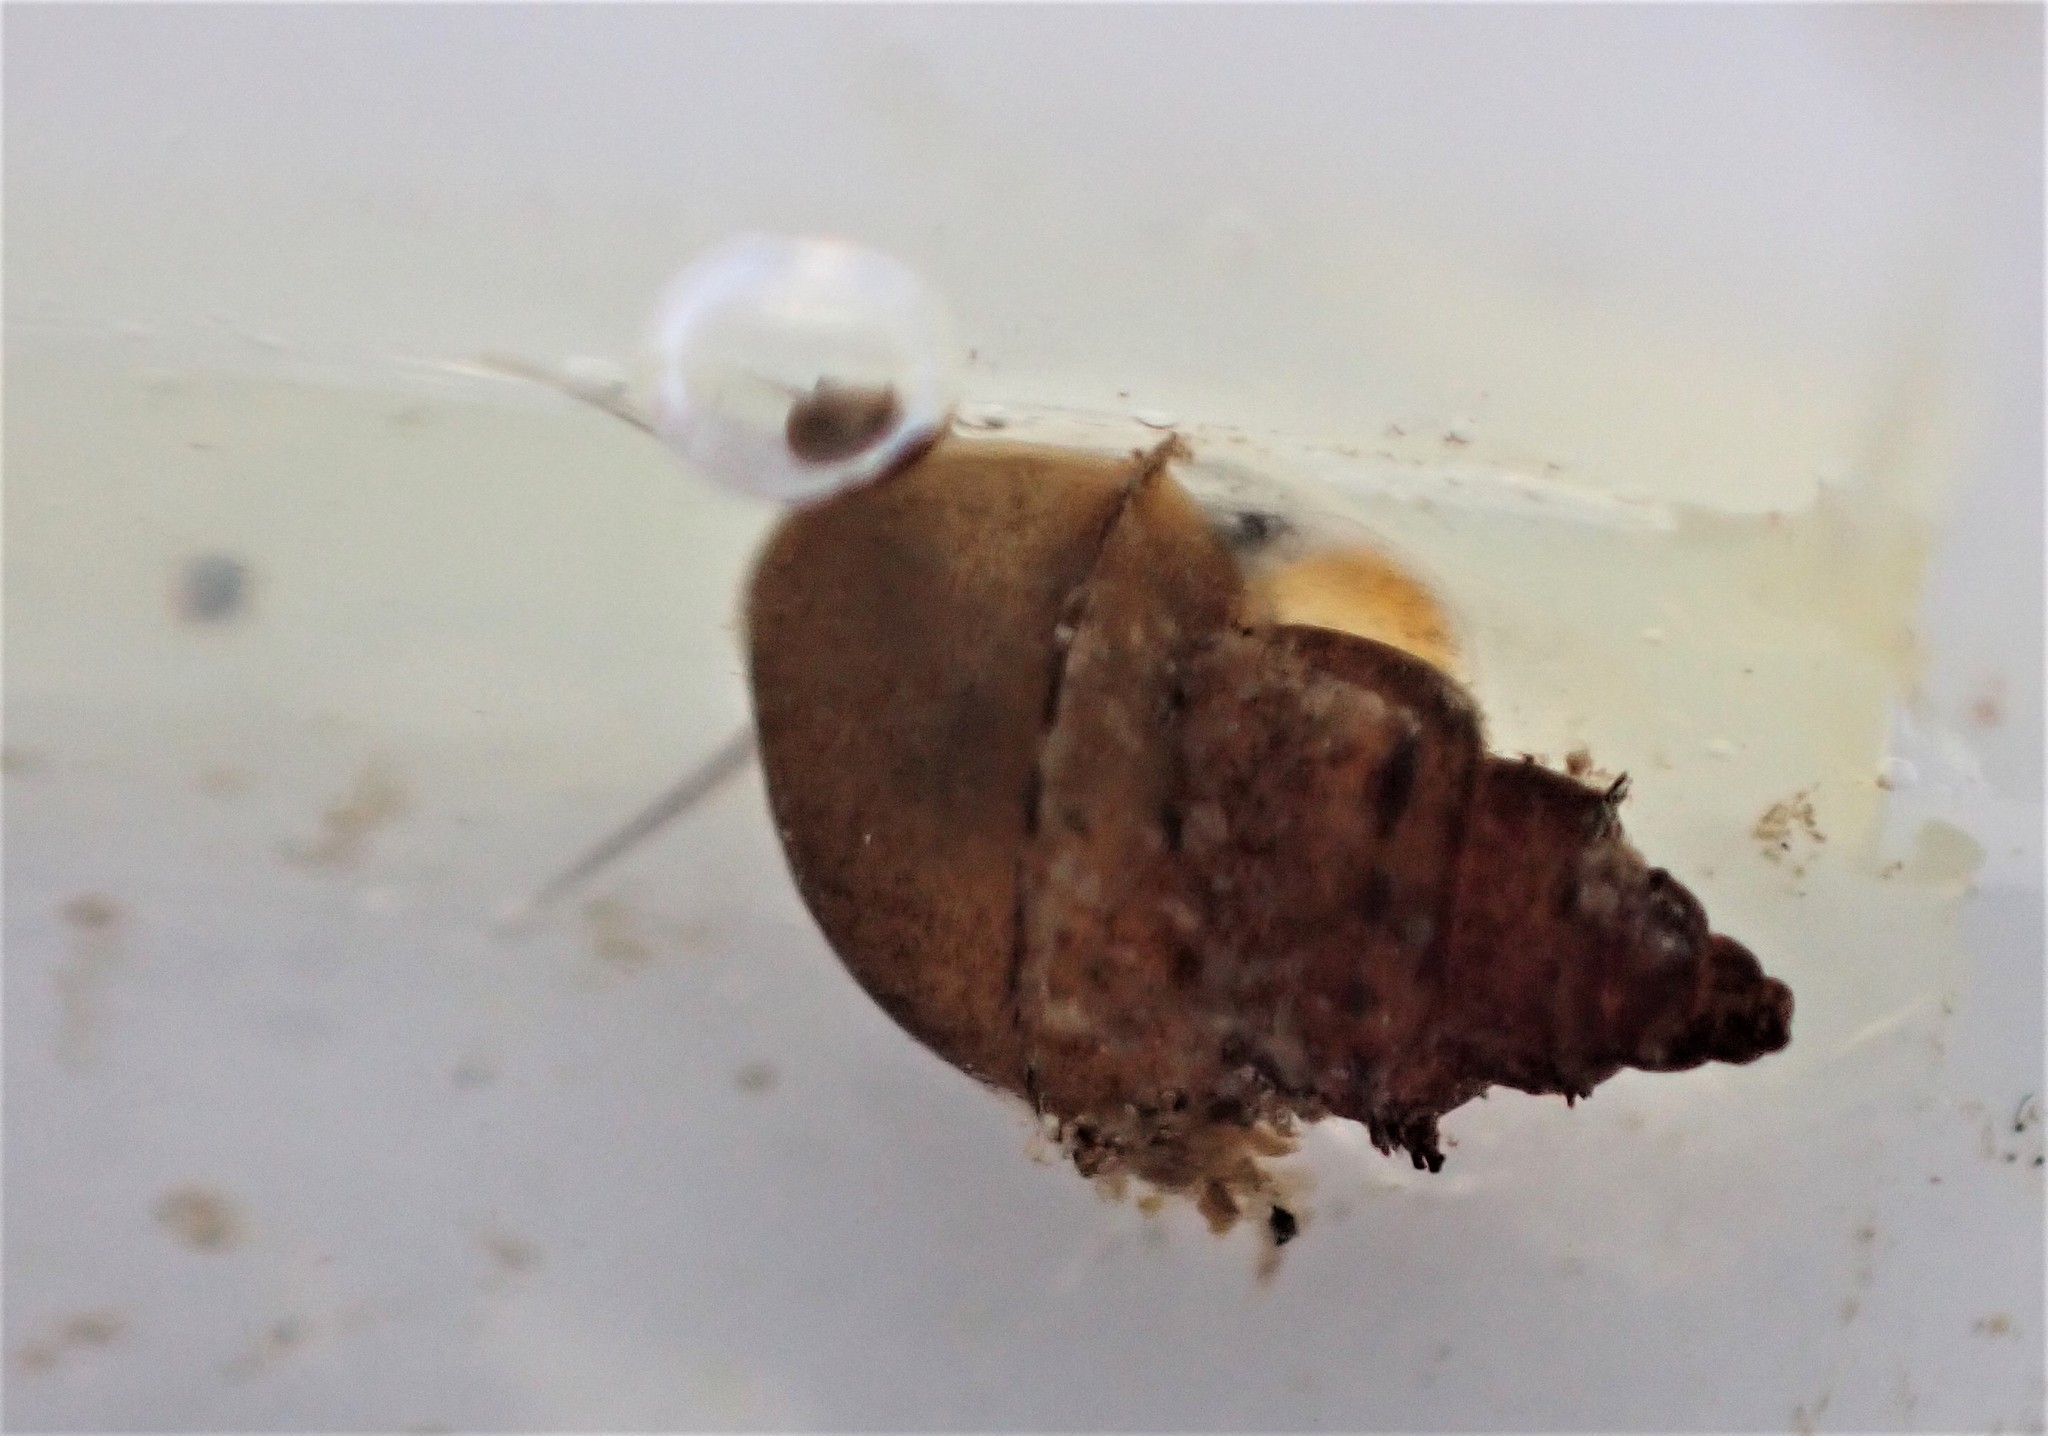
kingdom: Animalia
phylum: Mollusca
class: Gastropoda
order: Littorinimorpha
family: Tateidae
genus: Potamopyrgus
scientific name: Potamopyrgus antipodarum
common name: Jenkins' spire snail
